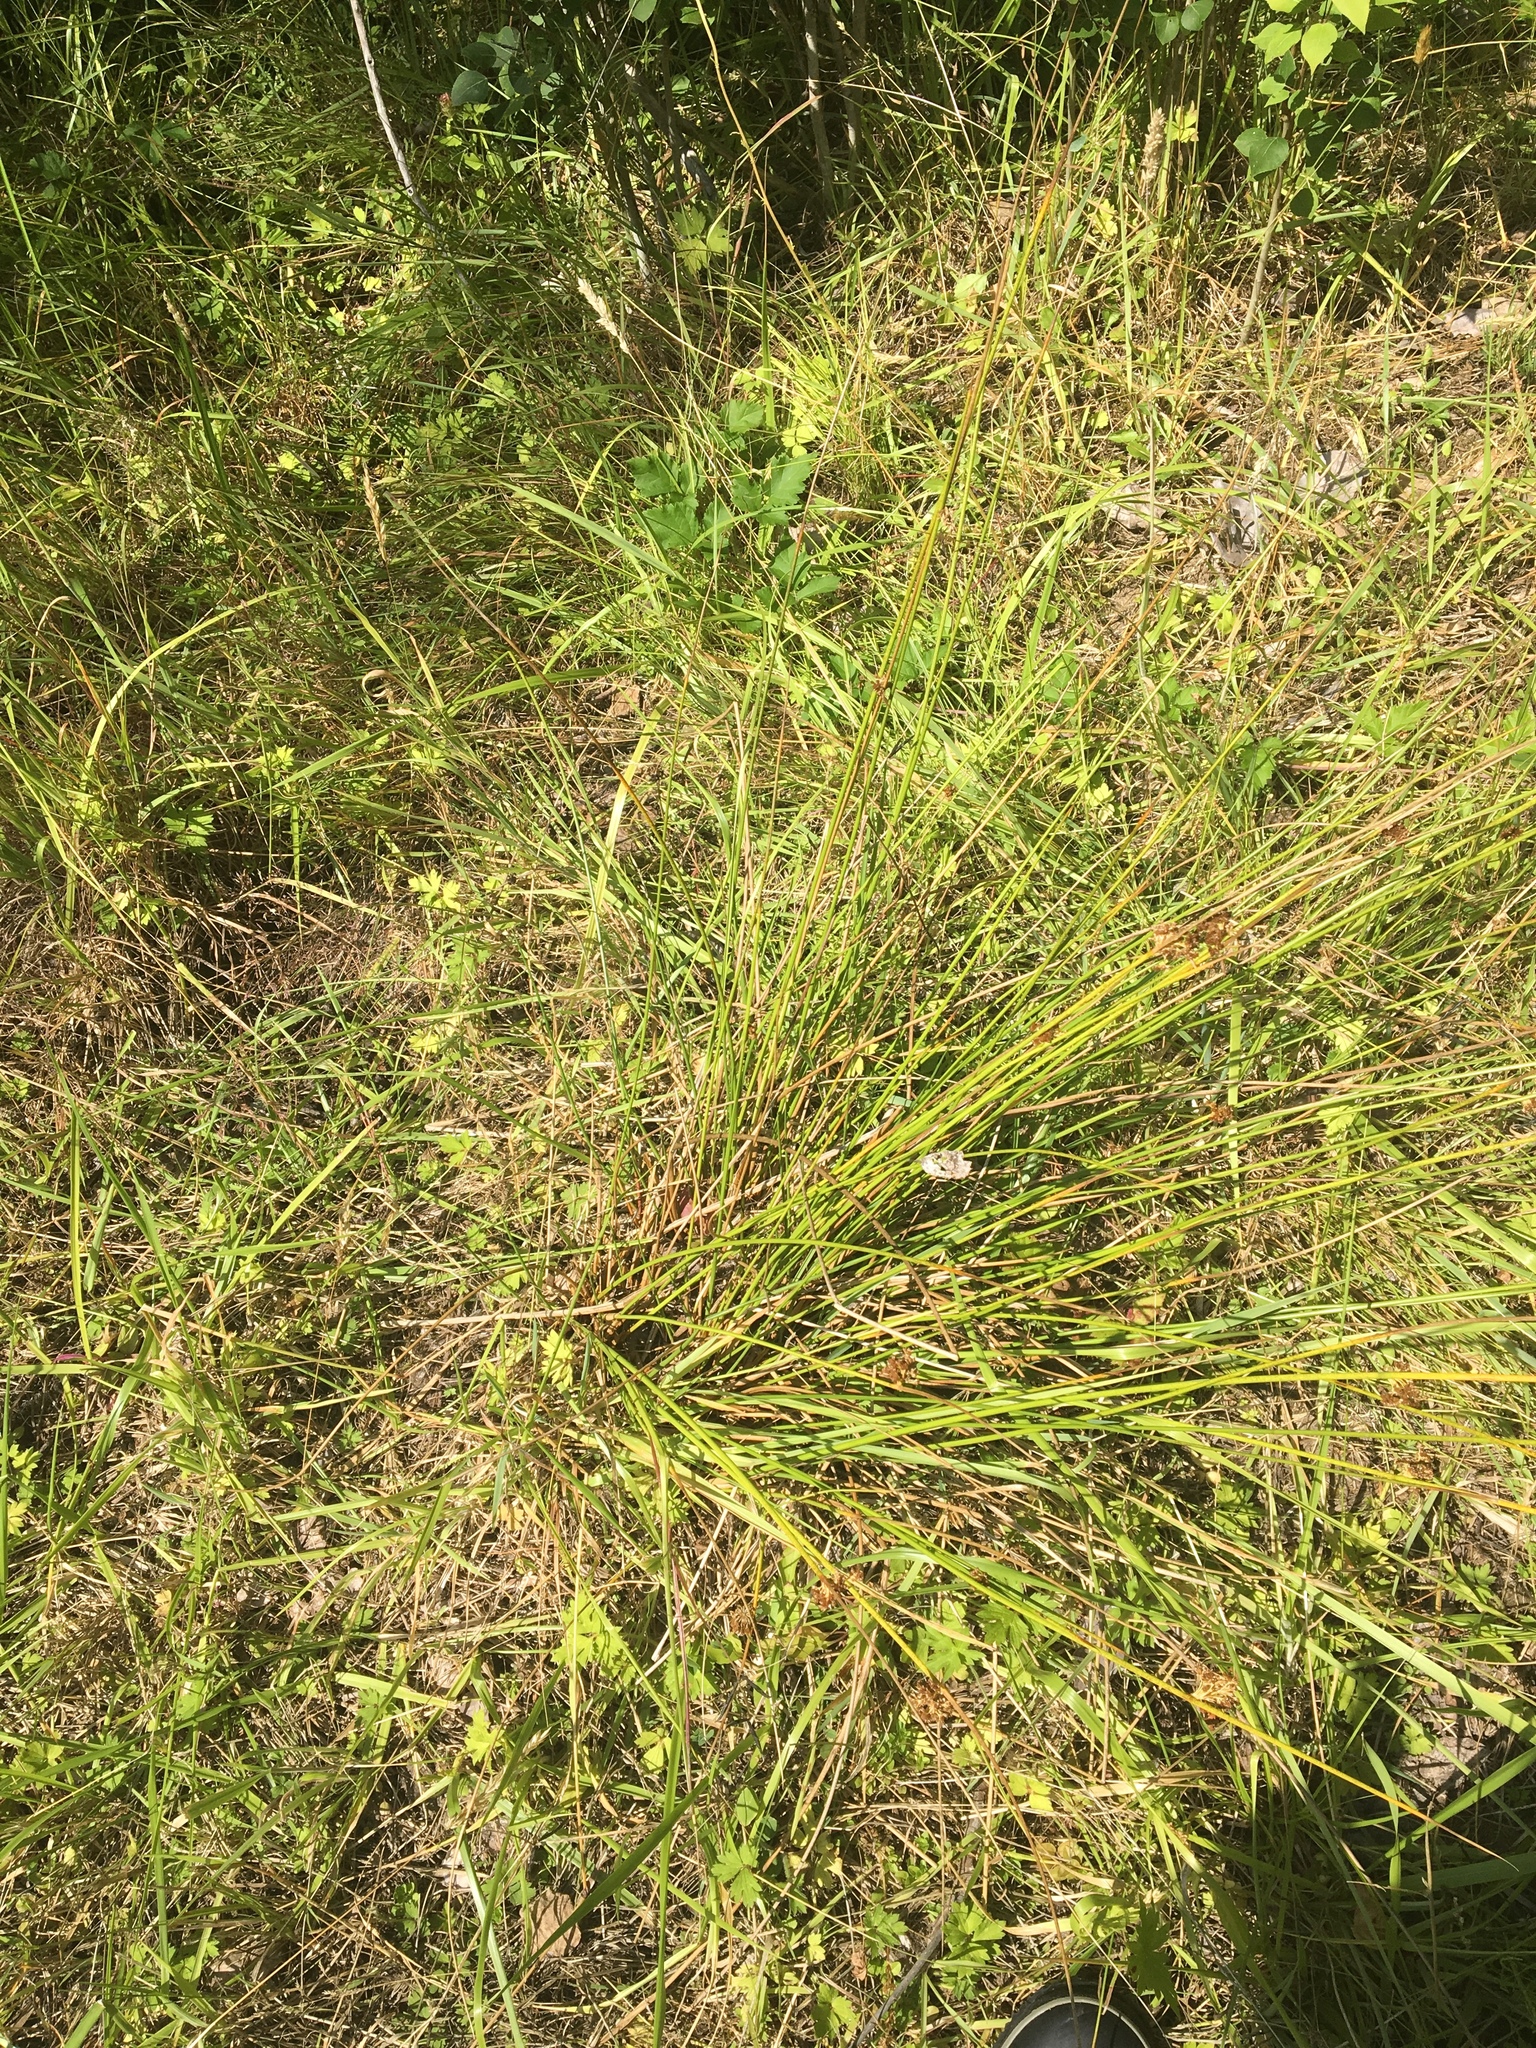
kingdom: Plantae
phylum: Tracheophyta
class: Liliopsida
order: Poales
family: Juncaceae
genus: Juncus
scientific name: Juncus effusus
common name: Soft rush
